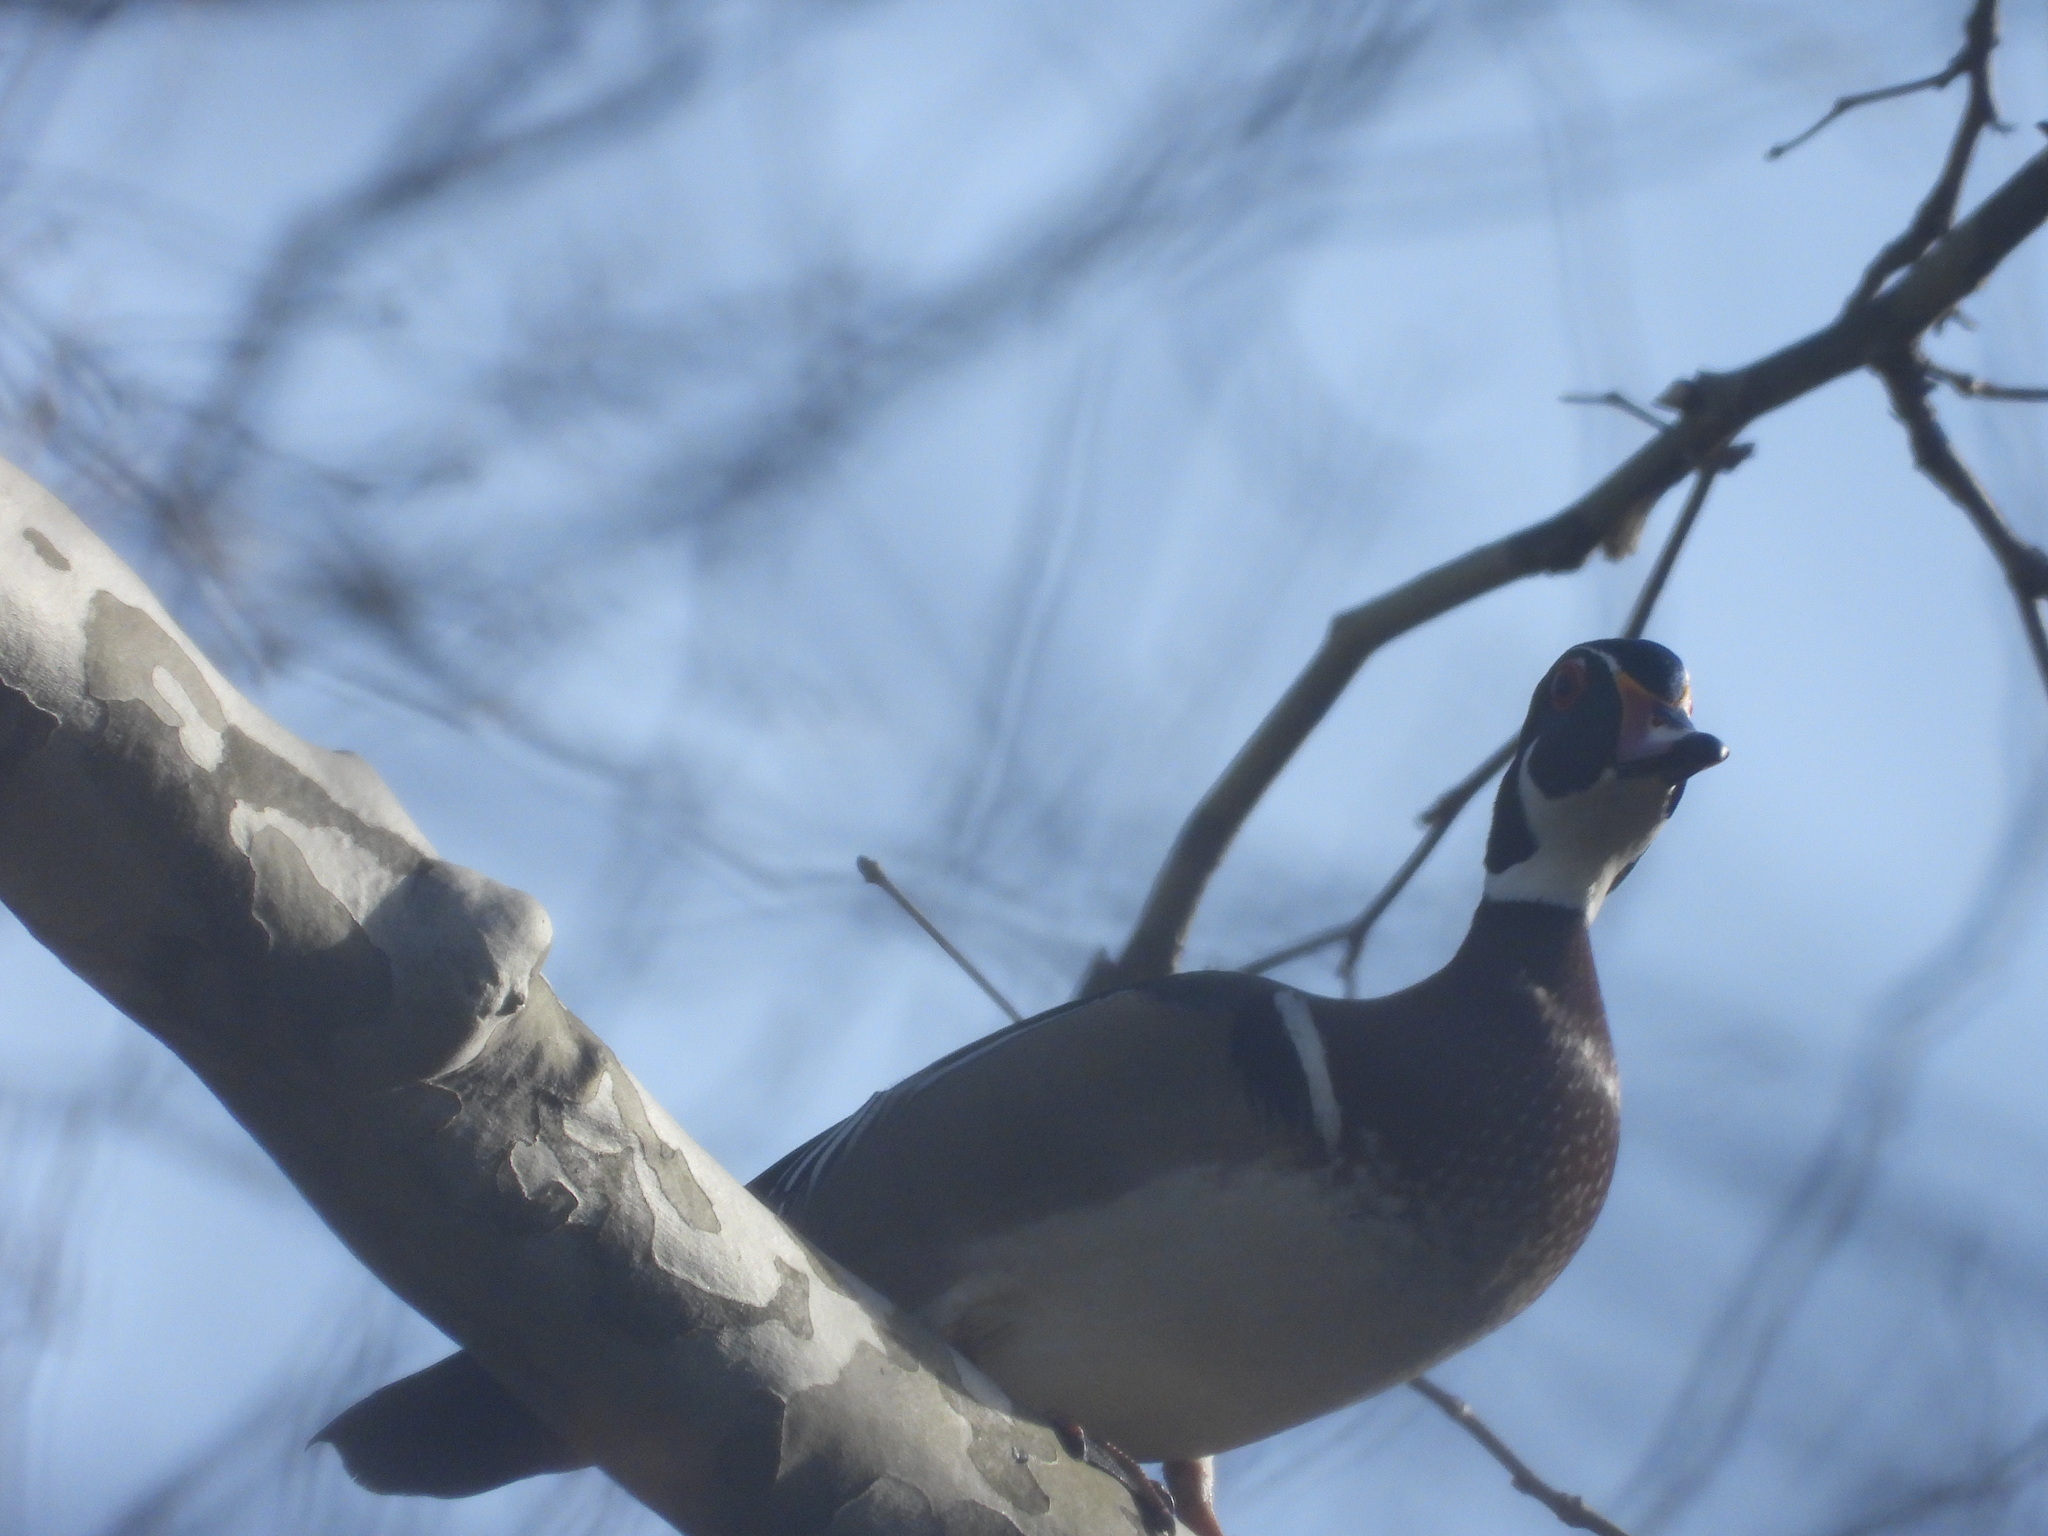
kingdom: Animalia
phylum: Chordata
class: Aves
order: Anseriformes
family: Anatidae
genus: Aix
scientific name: Aix sponsa
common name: Wood duck
